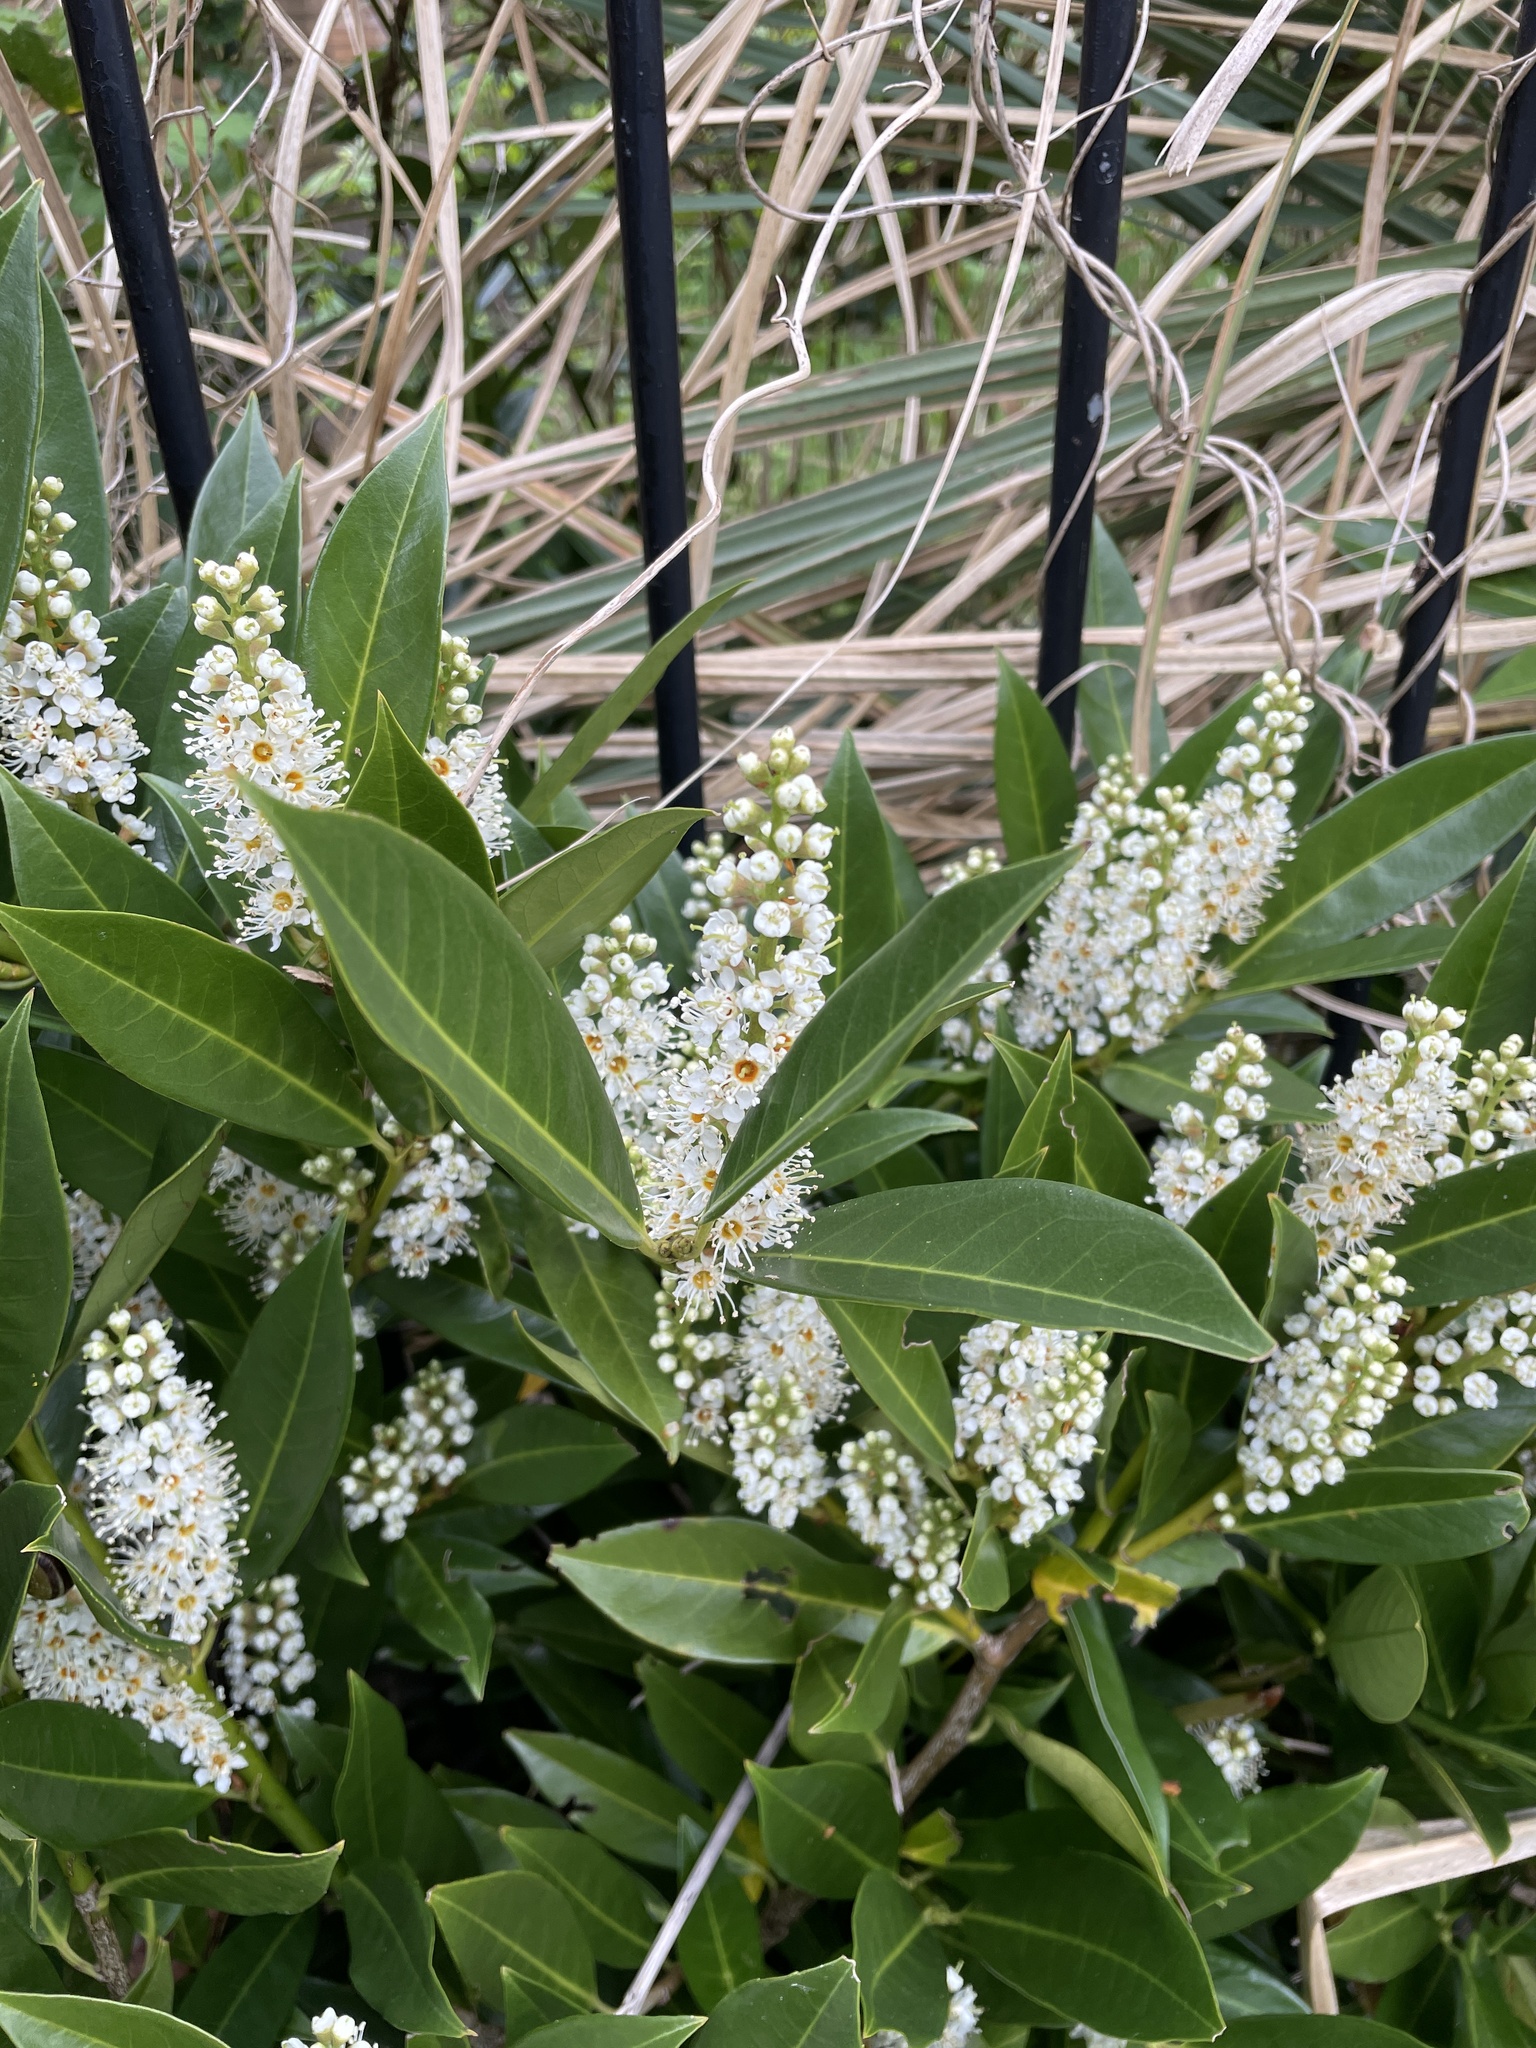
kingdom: Plantae
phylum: Tracheophyta
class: Magnoliopsida
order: Rosales
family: Rosaceae
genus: Prunus
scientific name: Prunus laurocerasus
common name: Cherry laurel
